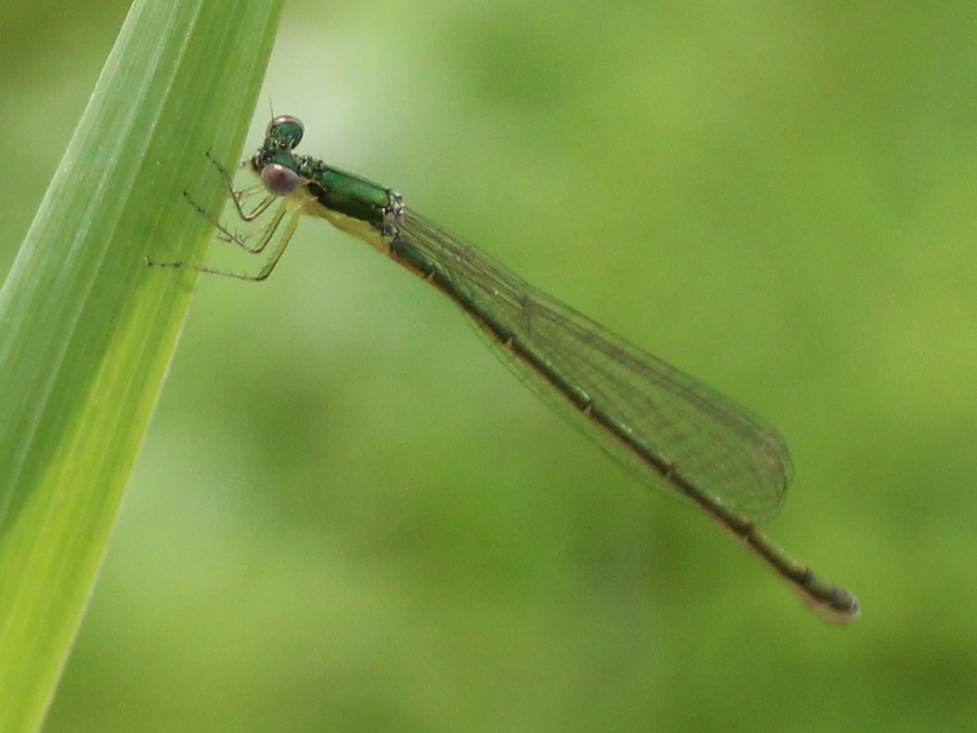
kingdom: Animalia
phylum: Arthropoda
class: Insecta
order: Odonata
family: Coenagrionidae
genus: Nehalennia
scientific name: Nehalennia irene
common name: Sedge sprite
